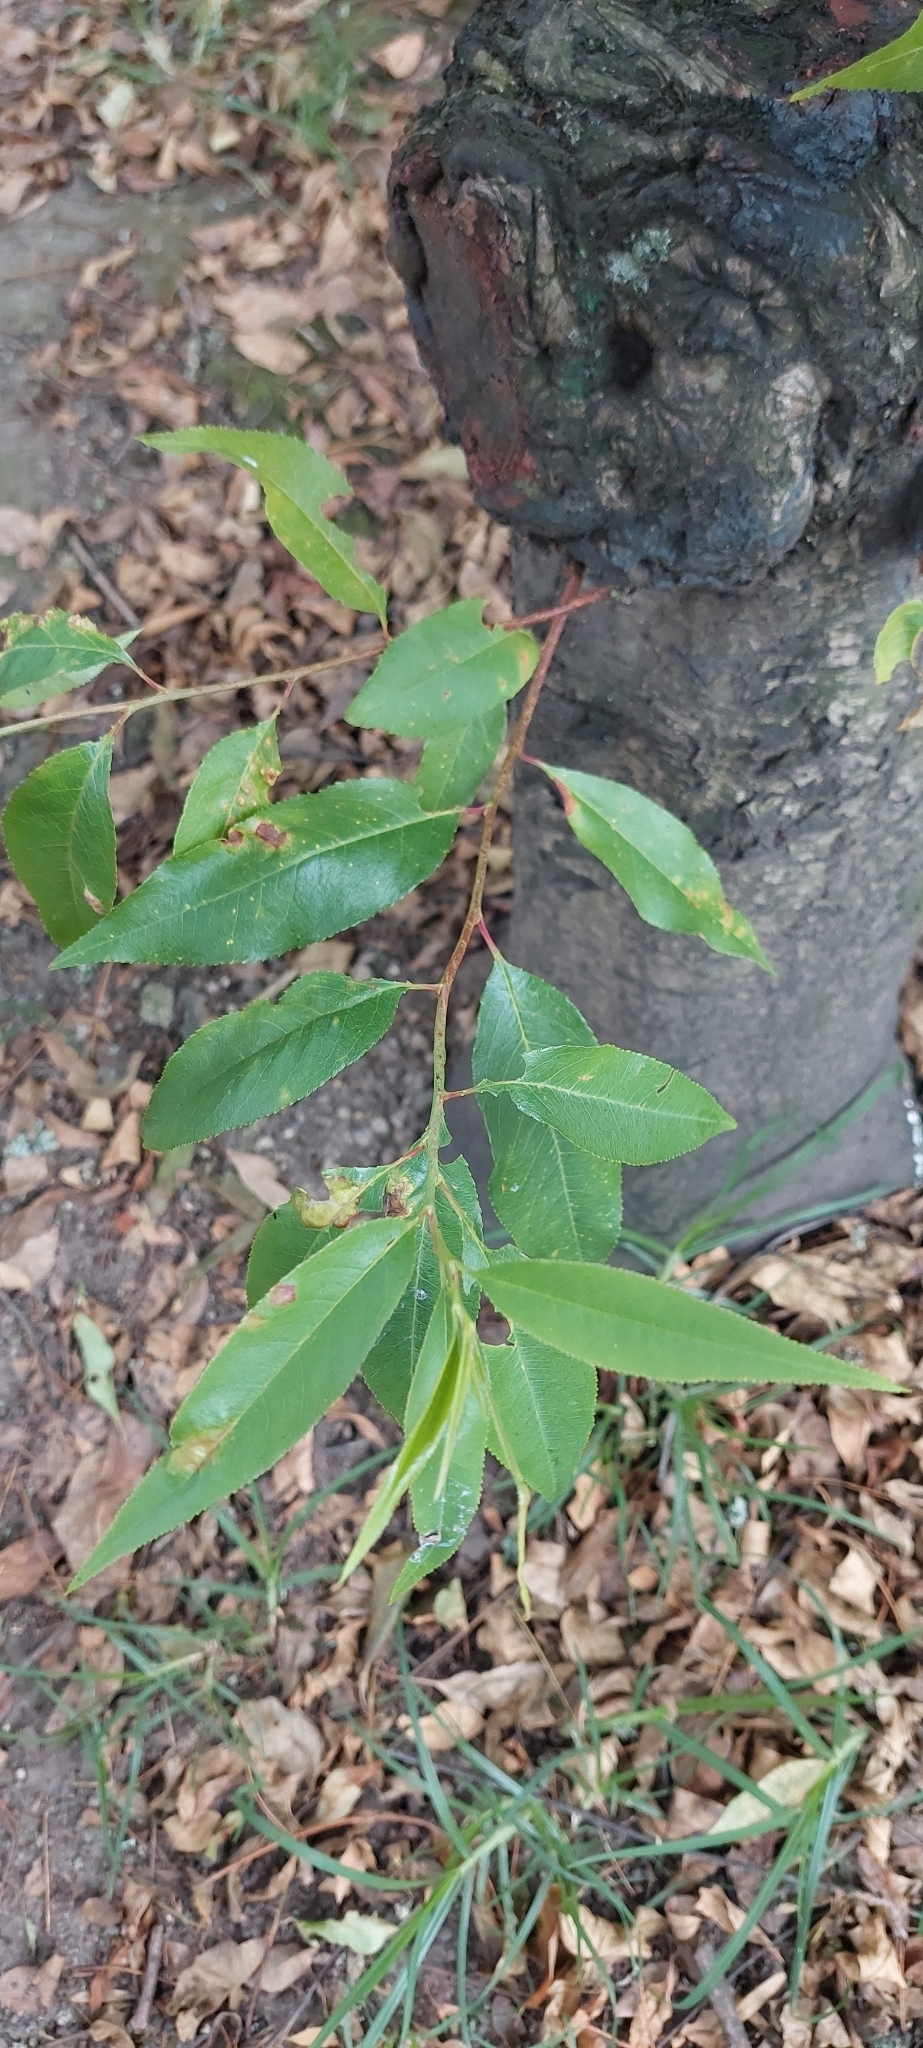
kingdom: Plantae
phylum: Tracheophyta
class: Magnoliopsida
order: Rosales
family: Rosaceae
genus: Prunus
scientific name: Prunus serotina
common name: Black cherry
